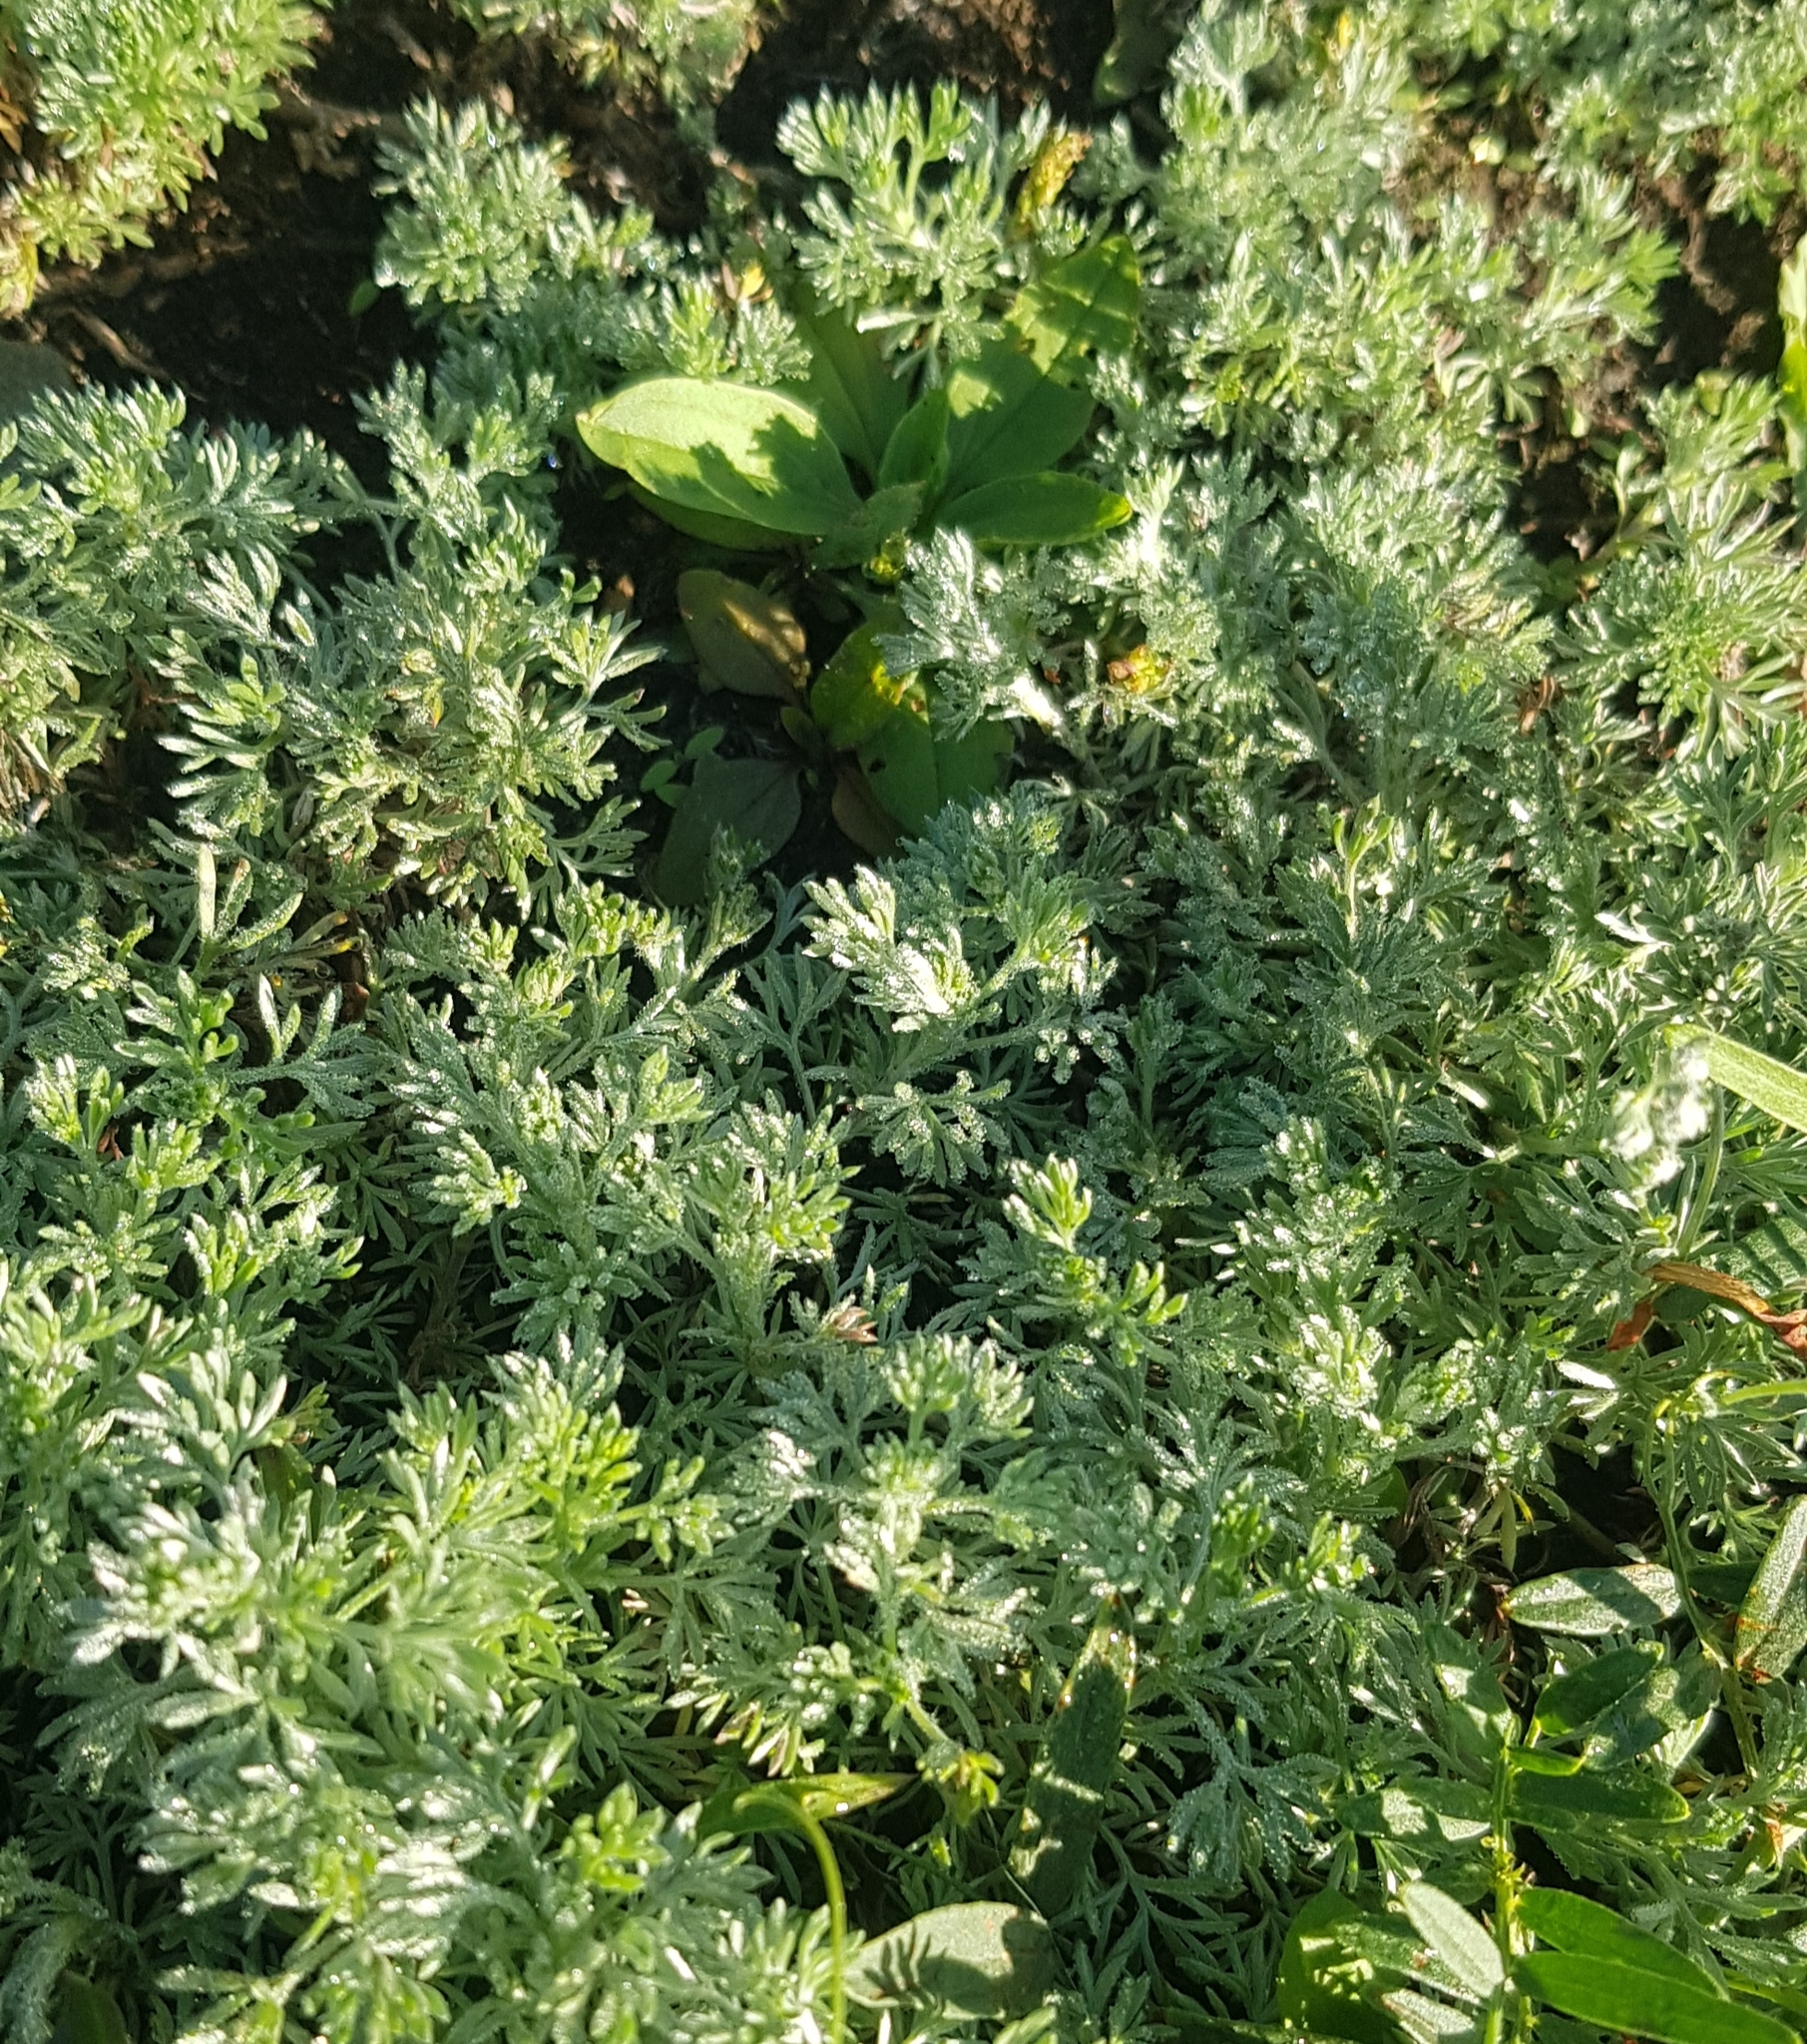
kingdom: Plantae
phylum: Tracheophyta
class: Magnoliopsida
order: Asterales
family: Asteraceae
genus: Artemisia
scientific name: Artemisia frigida
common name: Prairie sagewort
